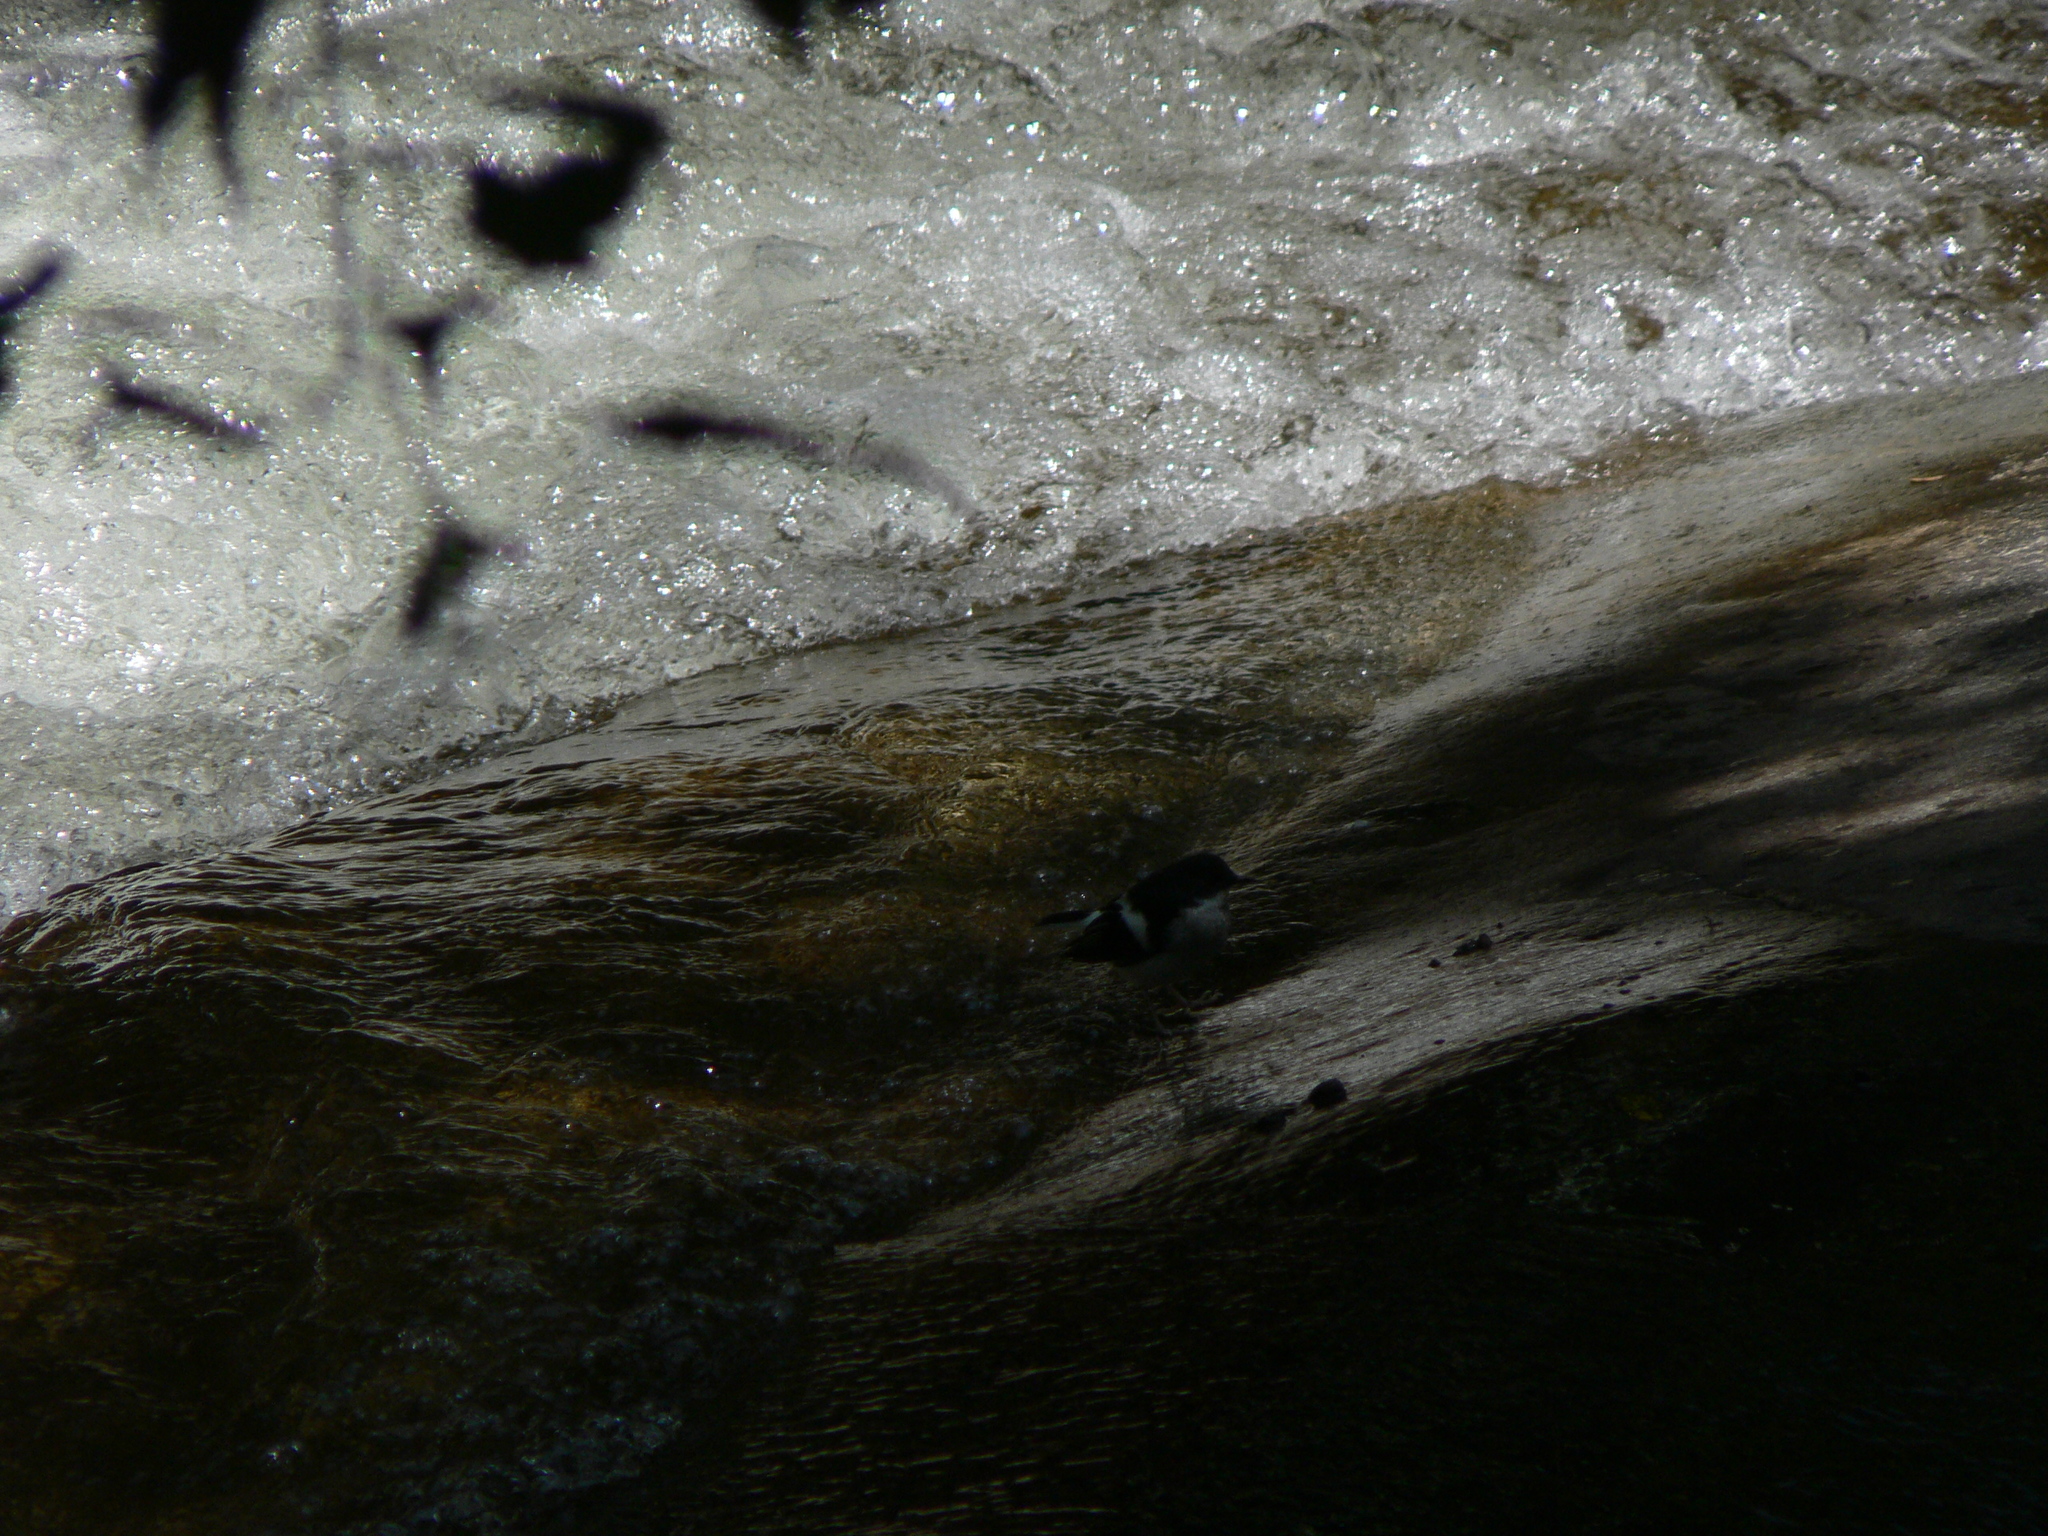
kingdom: Animalia
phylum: Chordata
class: Aves
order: Passeriformes
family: Muscicapidae
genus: Enicurus
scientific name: Enicurus scouleri
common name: Little forktail
